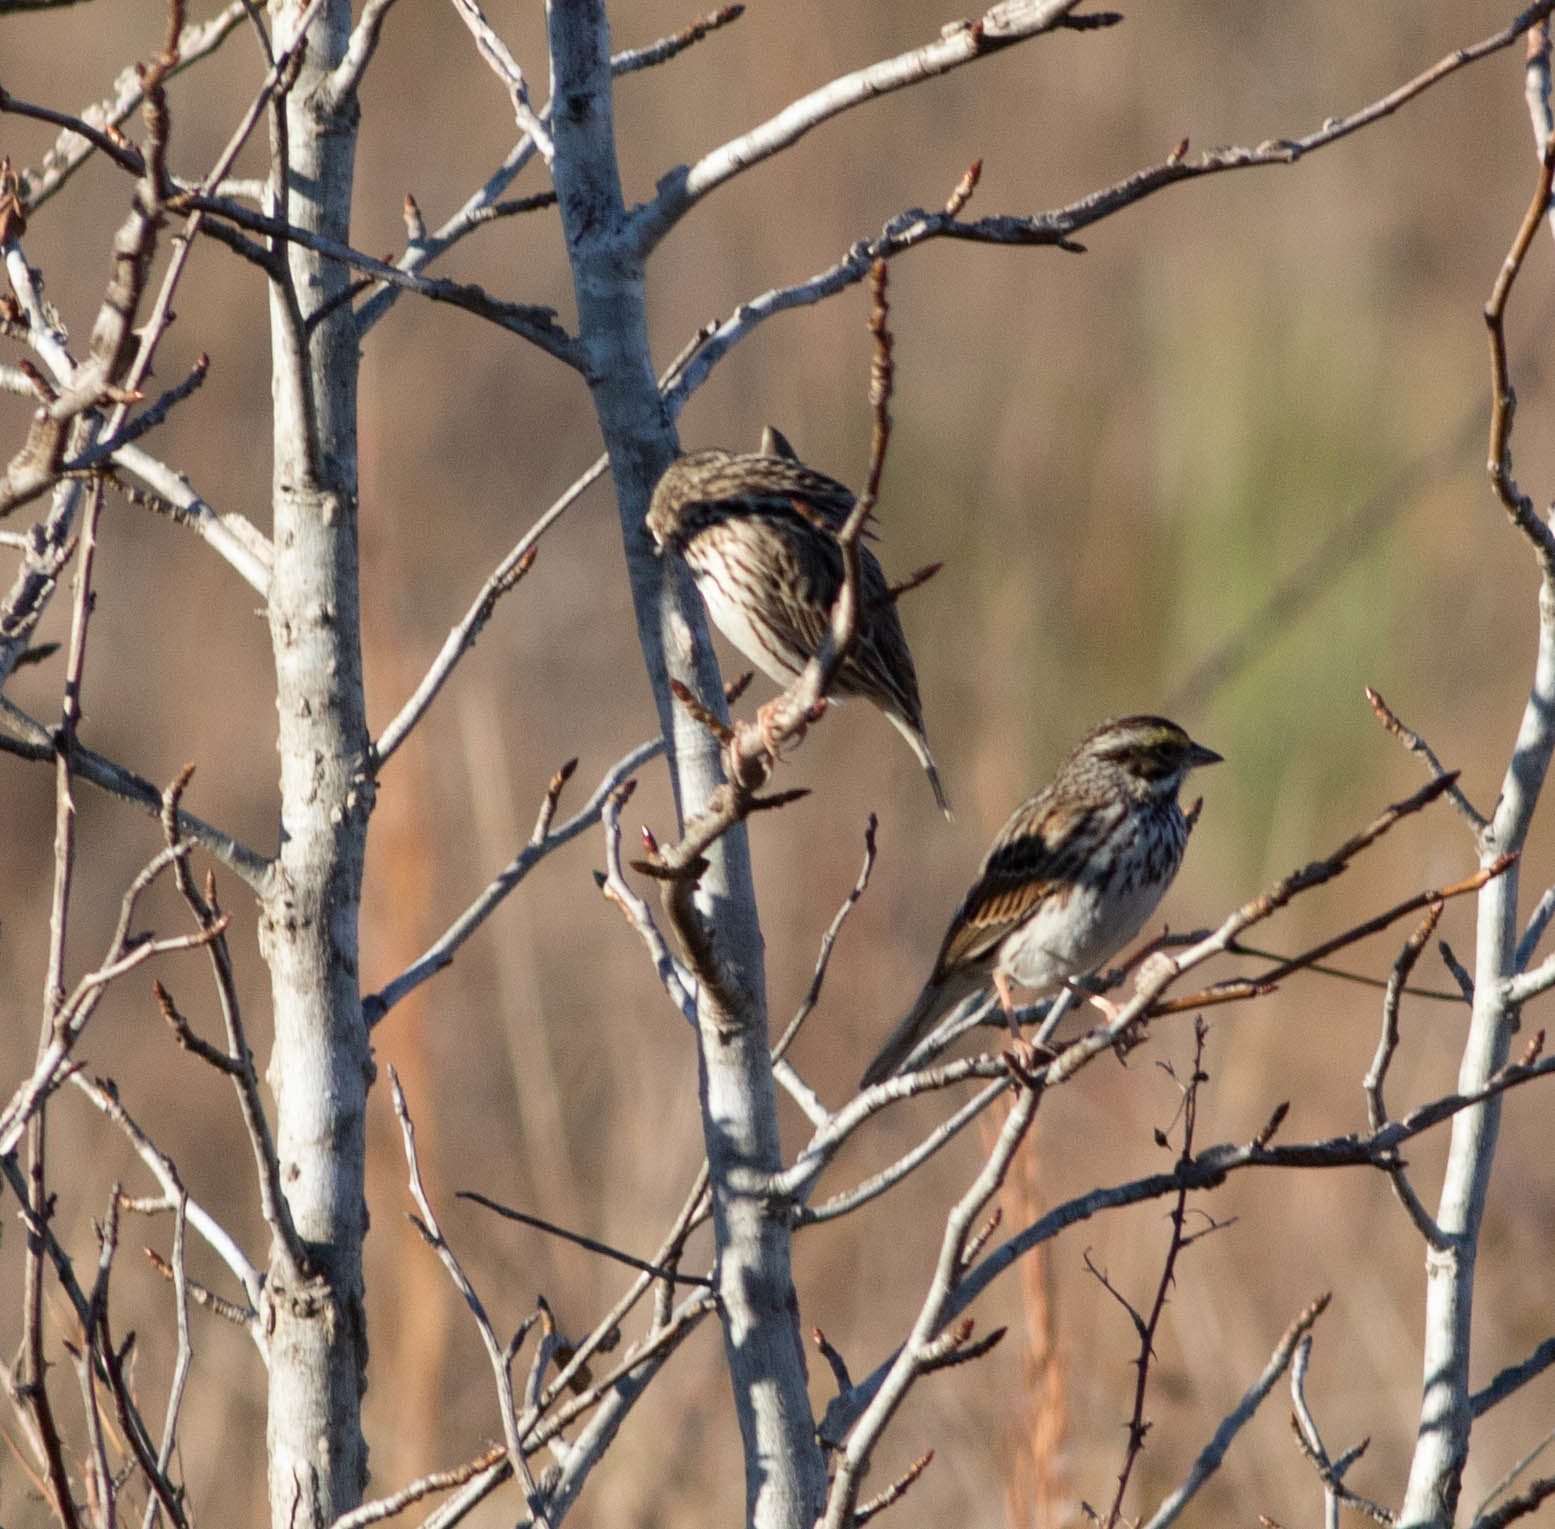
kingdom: Animalia
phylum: Chordata
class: Aves
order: Passeriformes
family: Passerellidae
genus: Passerculus
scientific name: Passerculus sandwichensis
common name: Savannah sparrow
